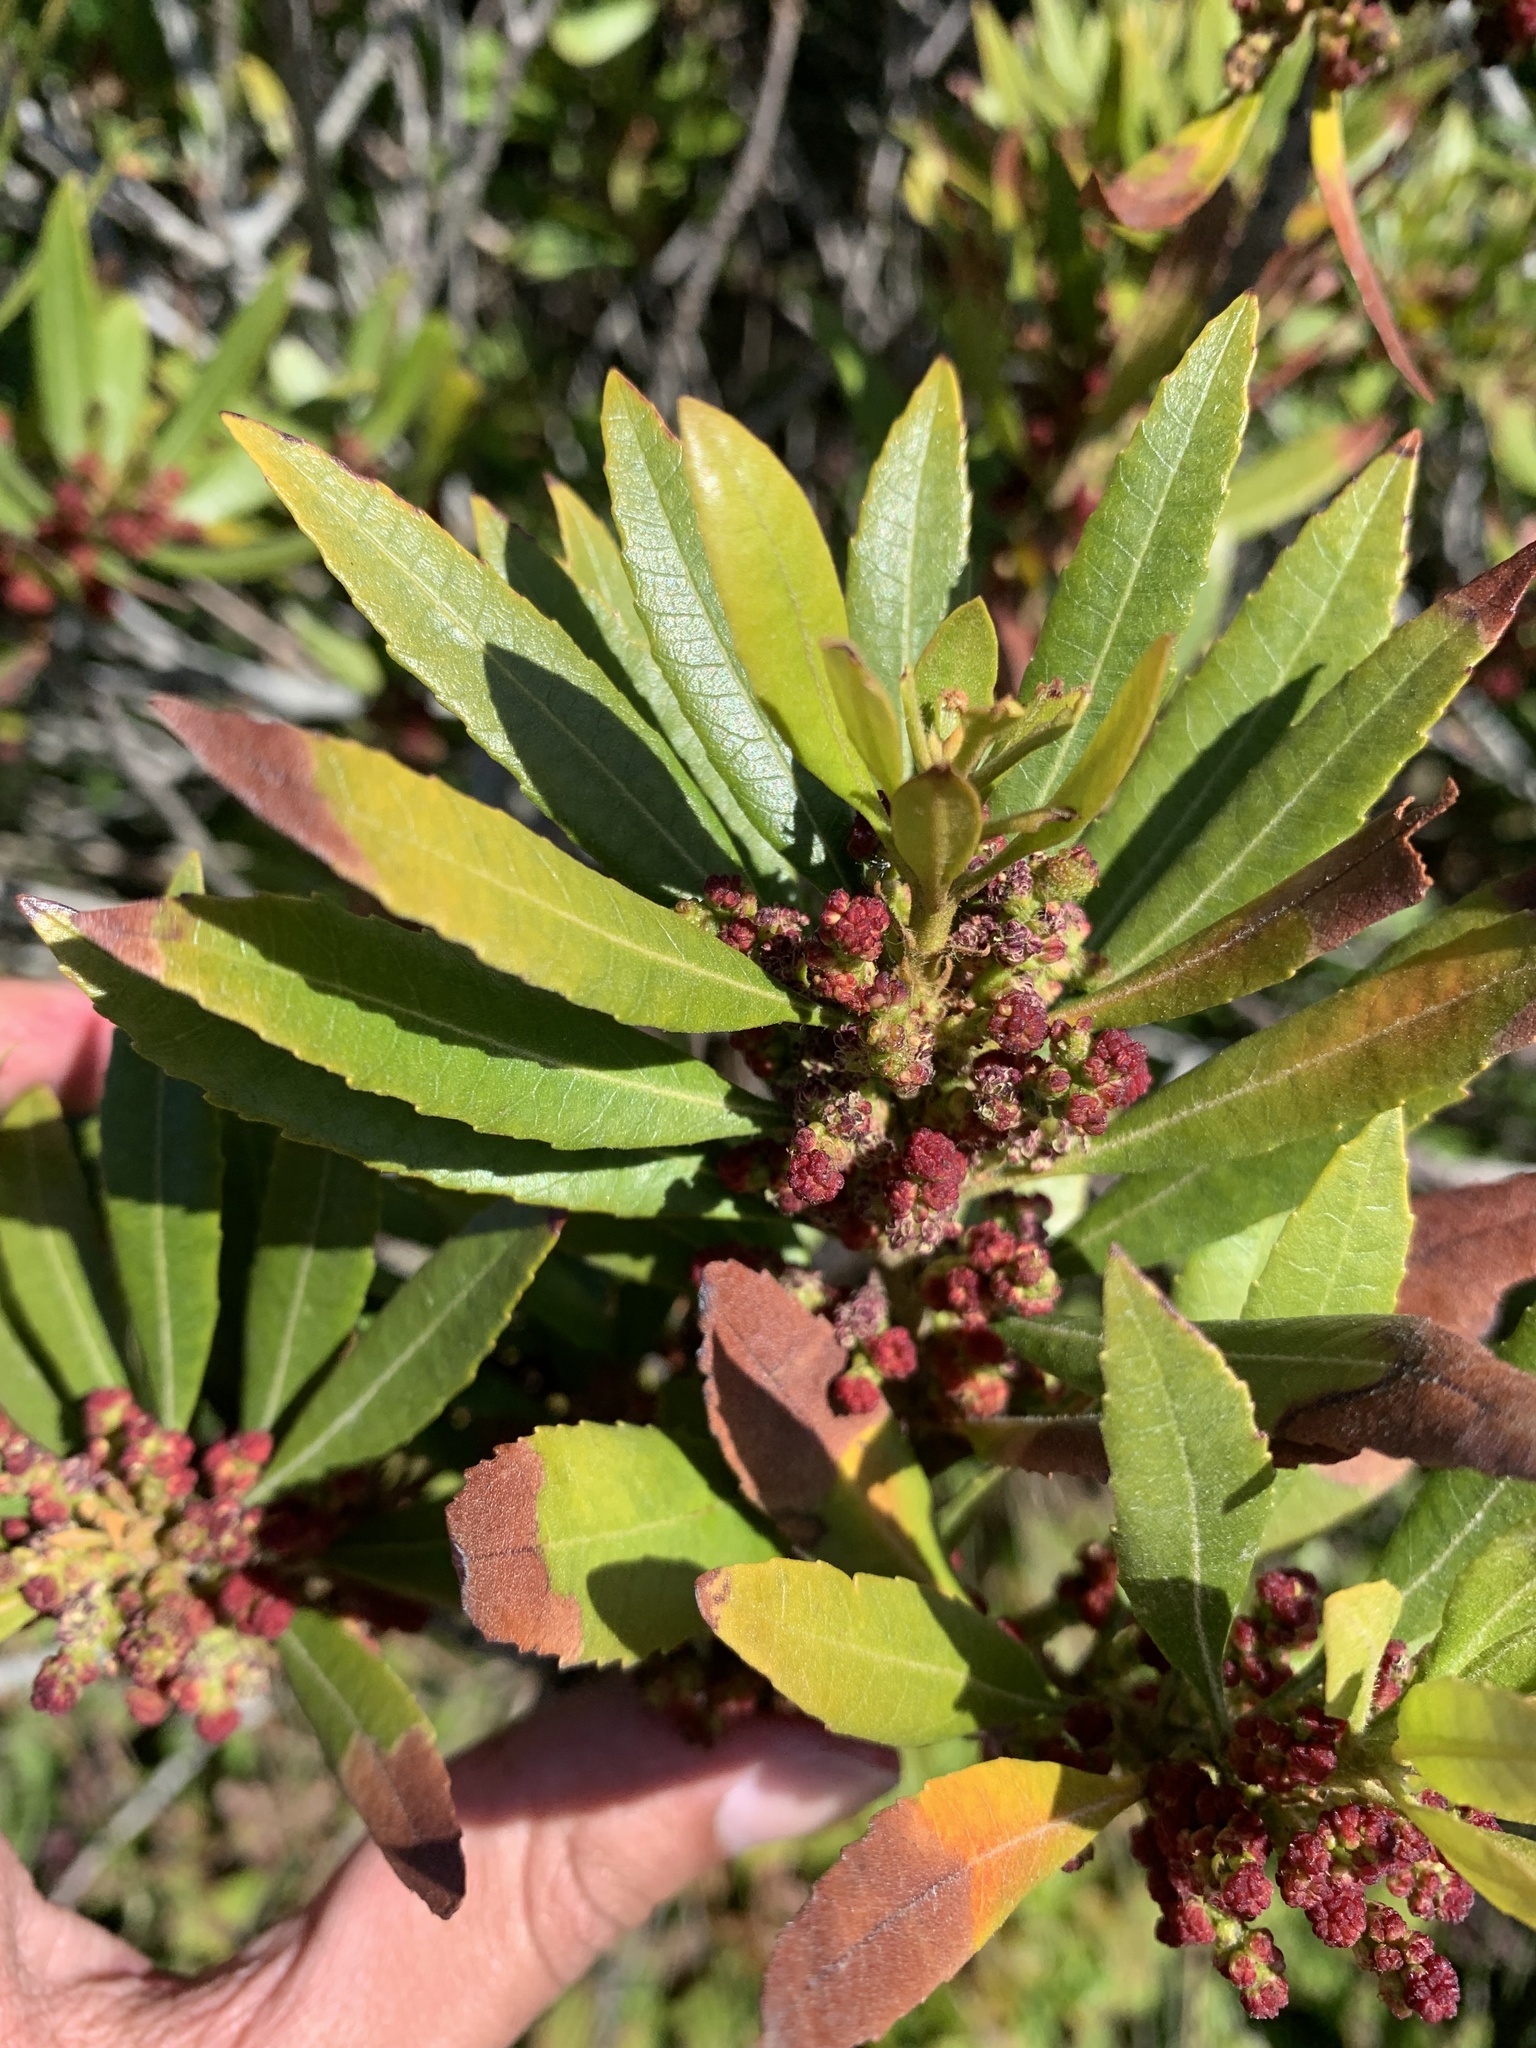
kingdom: Plantae
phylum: Tracheophyta
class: Magnoliopsida
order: Fagales
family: Myricaceae
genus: Morella
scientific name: Morella californica
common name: California wax-myrtle
